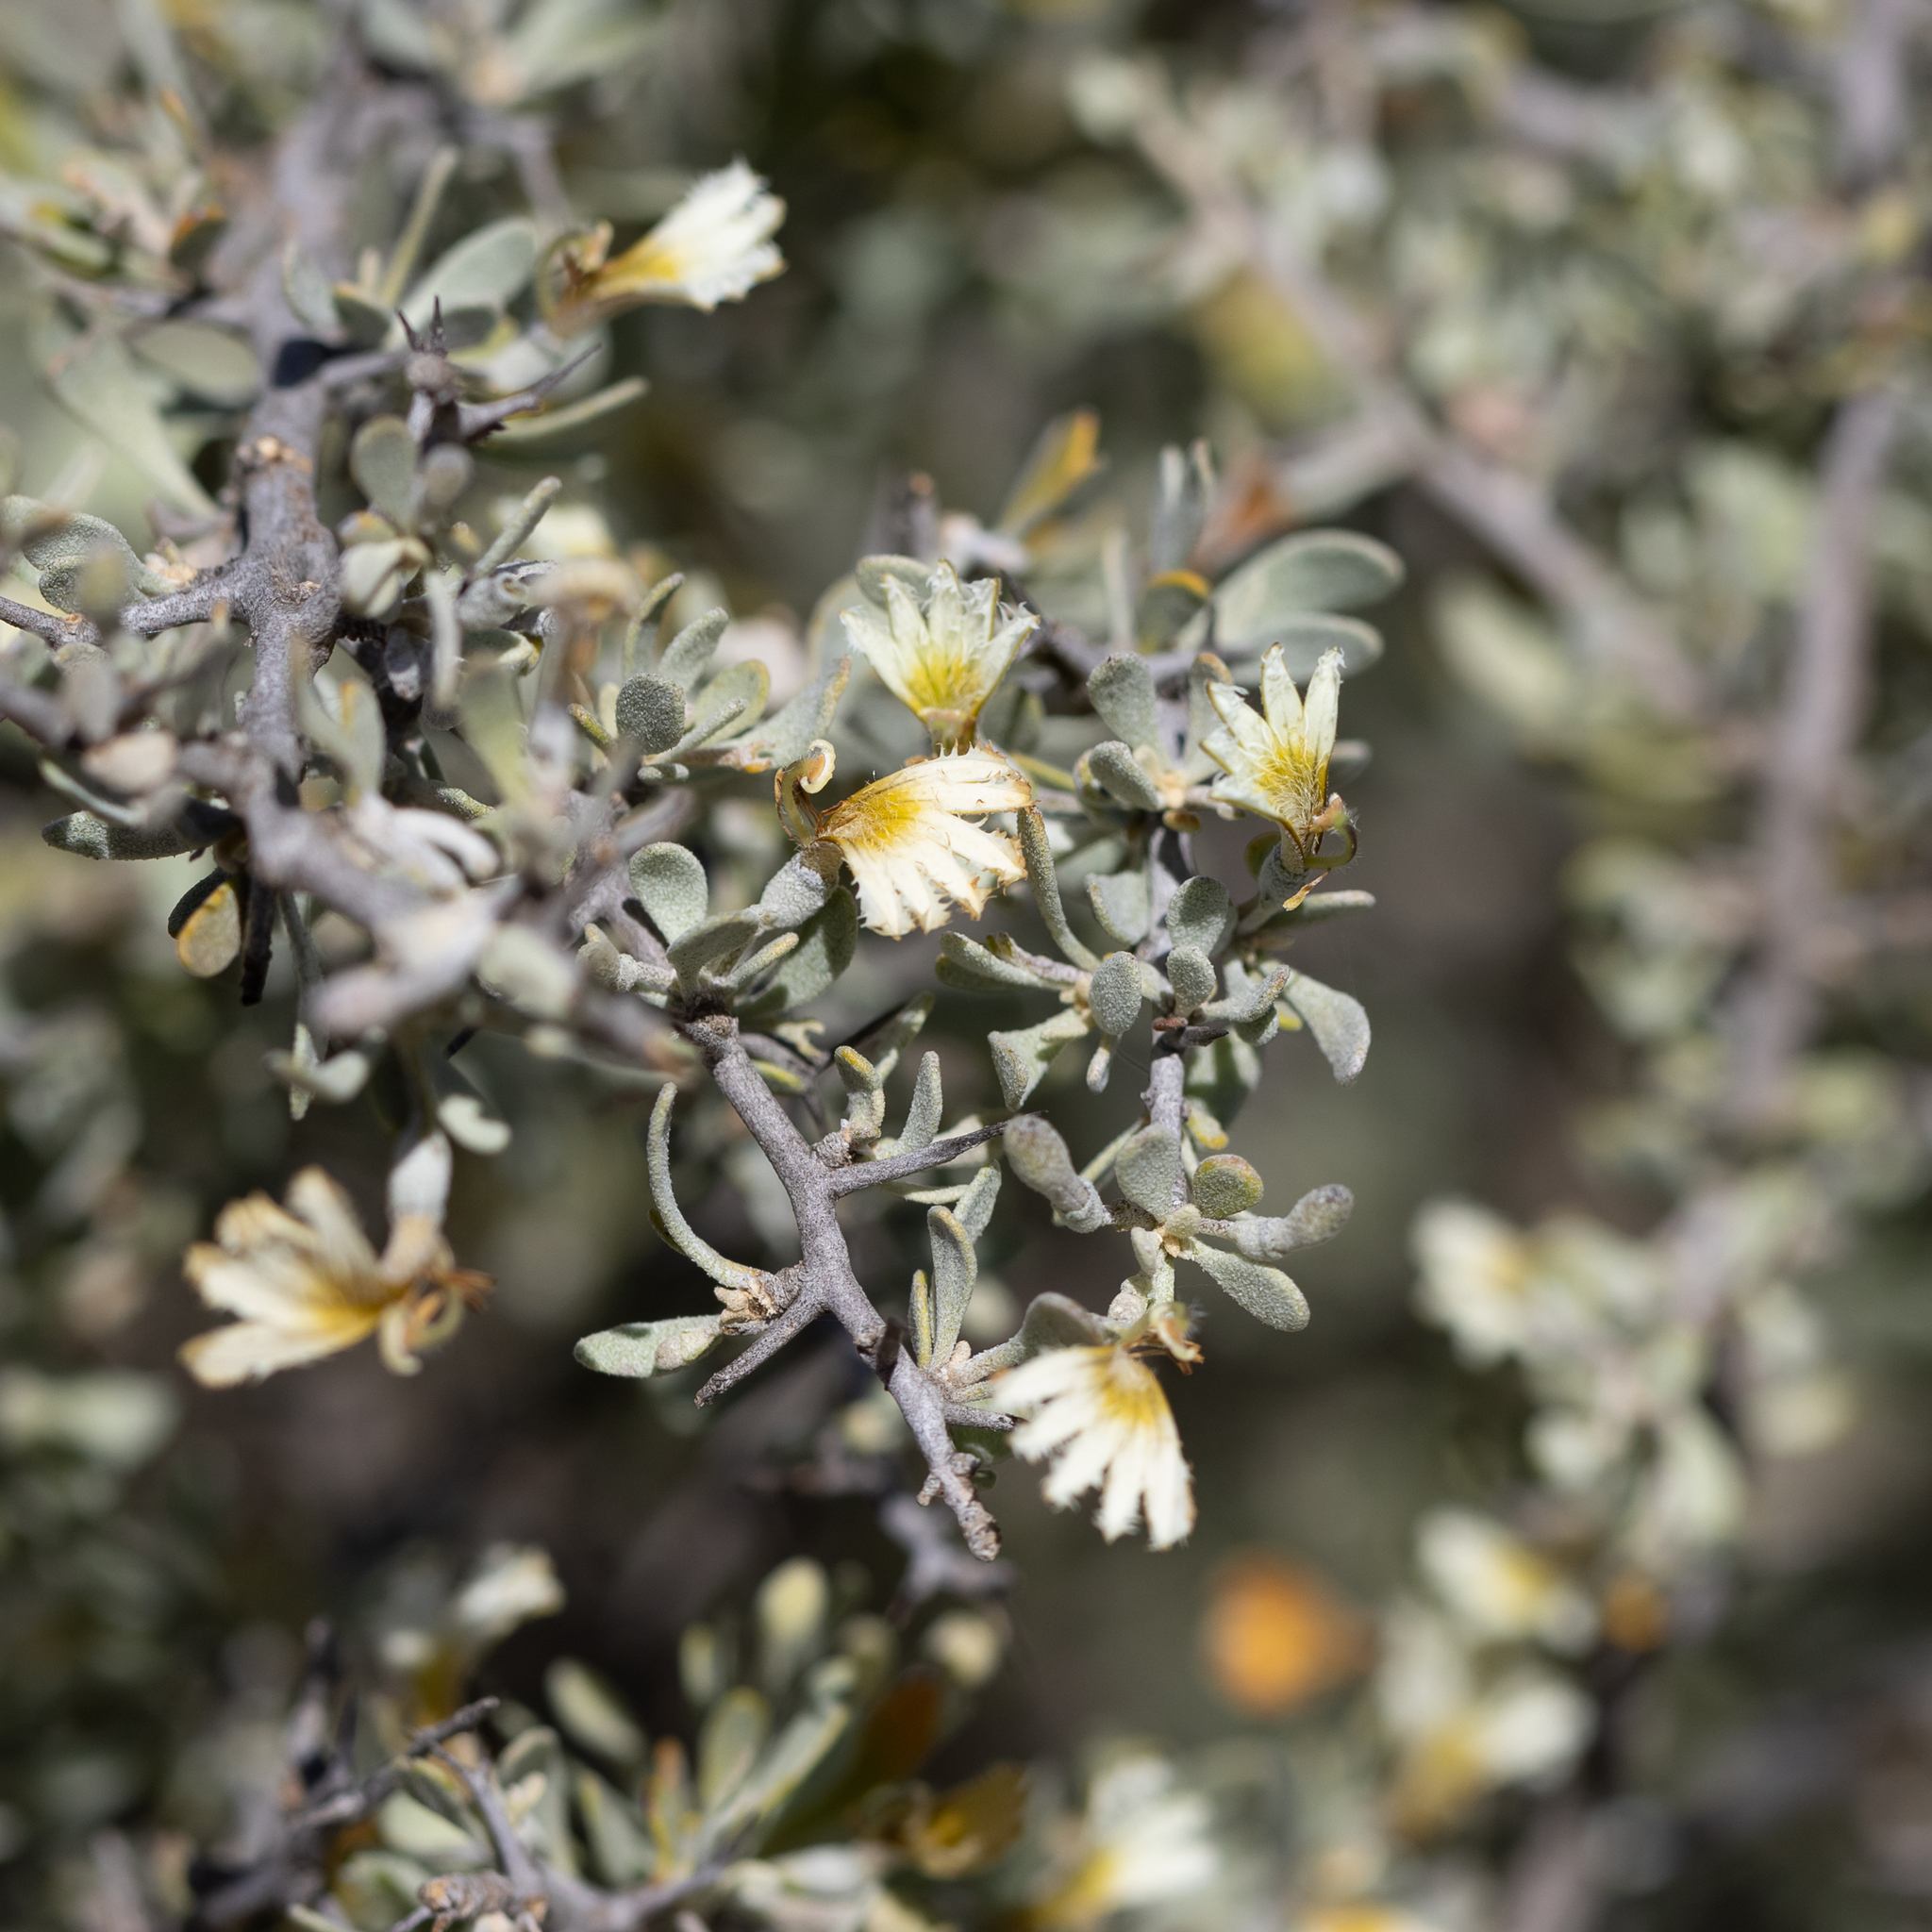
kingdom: Plantae
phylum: Tracheophyta
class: Magnoliopsida
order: Asterales
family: Goodeniaceae
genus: Scaevola
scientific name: Scaevola spinescens
